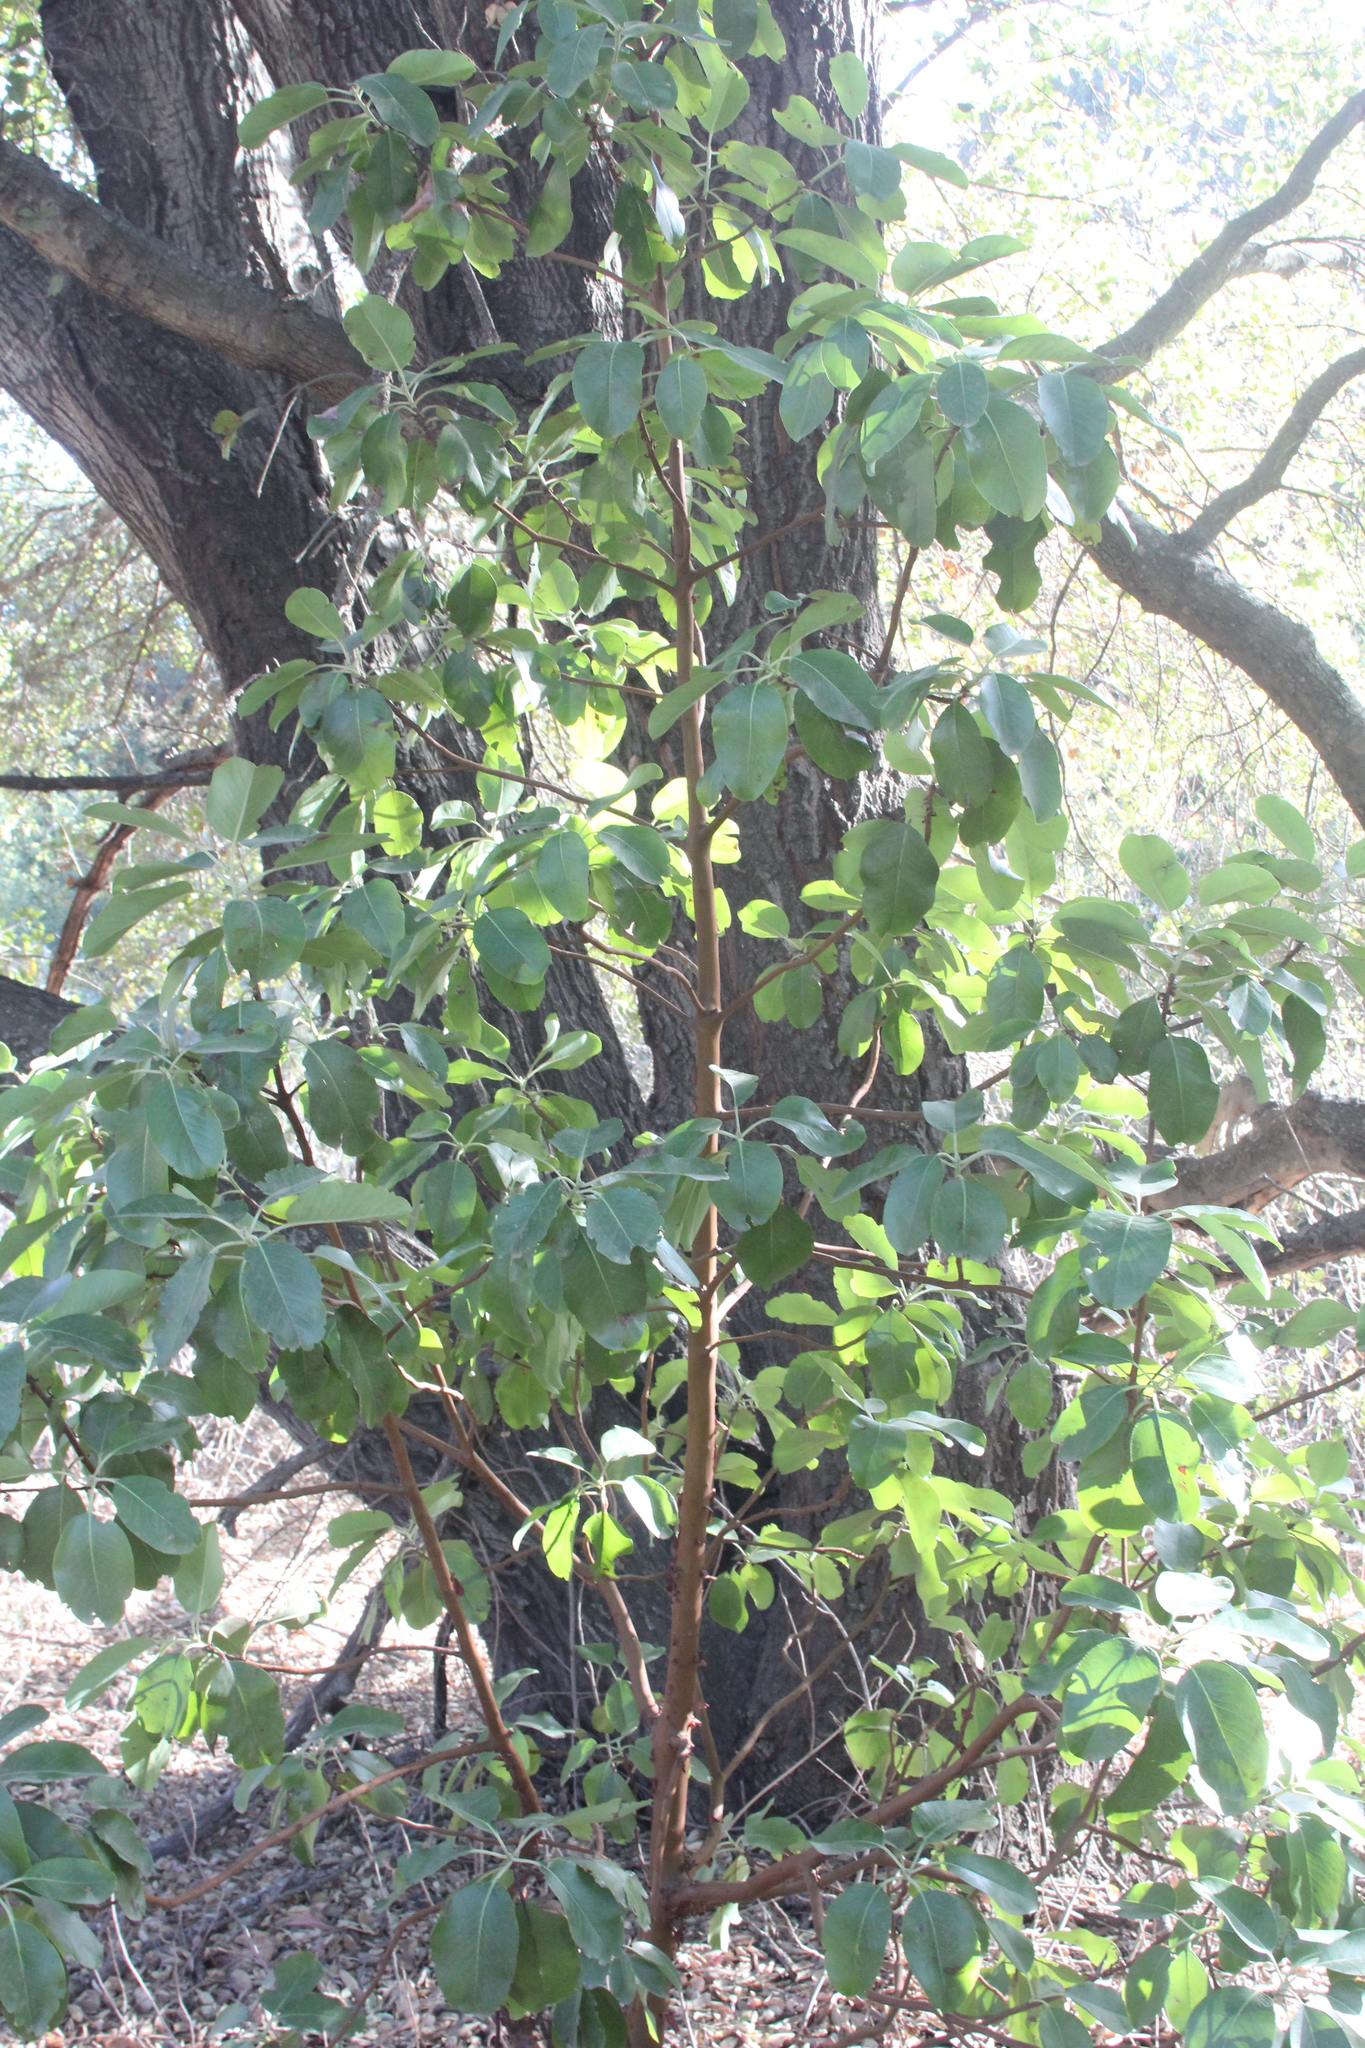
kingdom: Plantae
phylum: Tracheophyta
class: Magnoliopsida
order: Ericales
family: Ericaceae
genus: Arbutus
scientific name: Arbutus menziesii
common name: Pacific madrone
